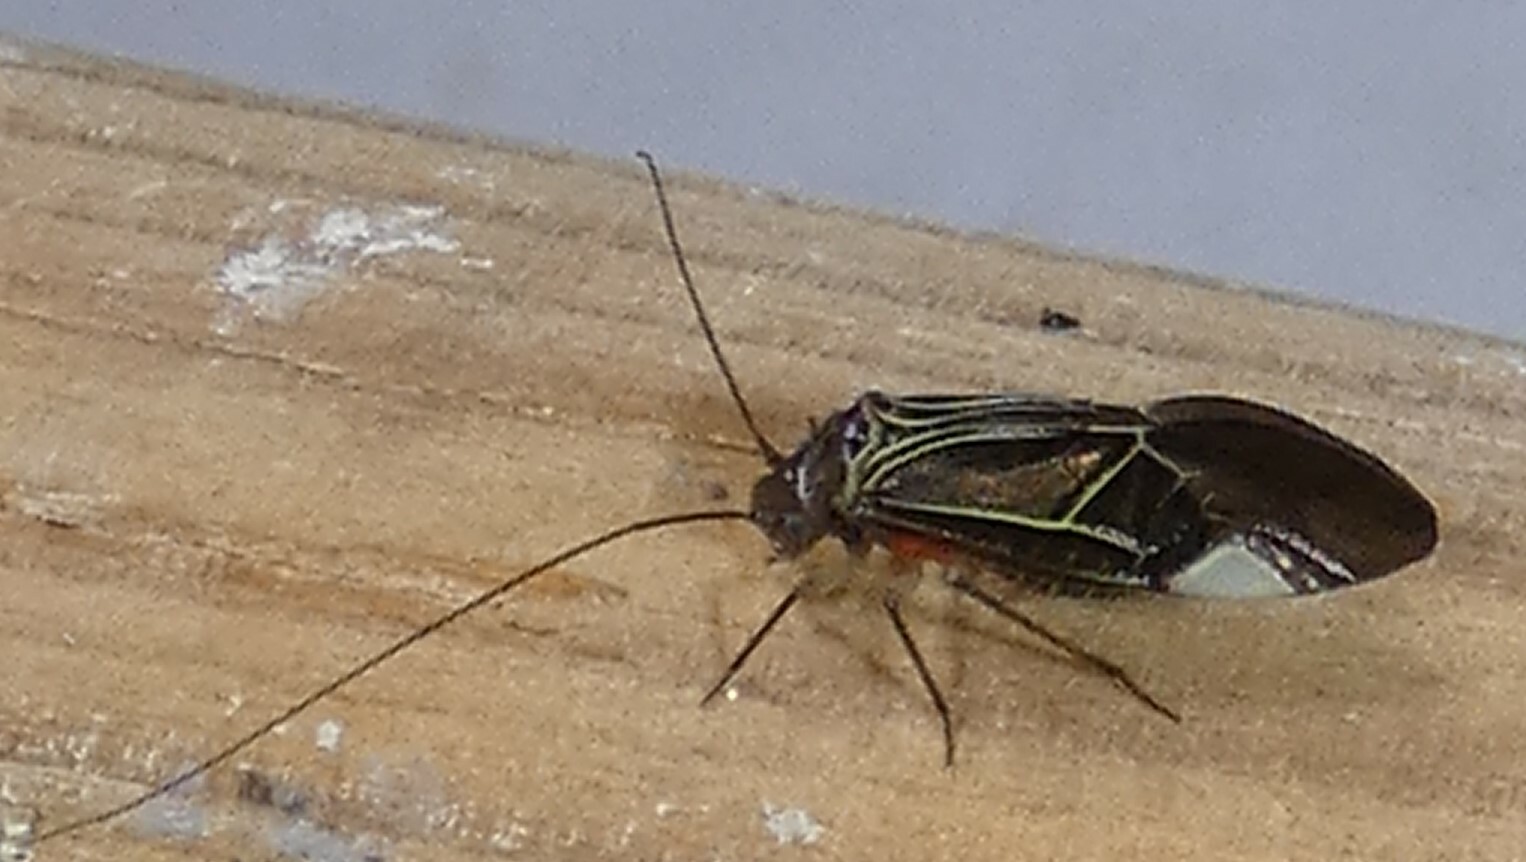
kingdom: Animalia
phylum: Arthropoda
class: Insecta
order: Psocodea
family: Psocidae
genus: Cerastipsocus
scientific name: Cerastipsocus venosus
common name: Tree cattle
